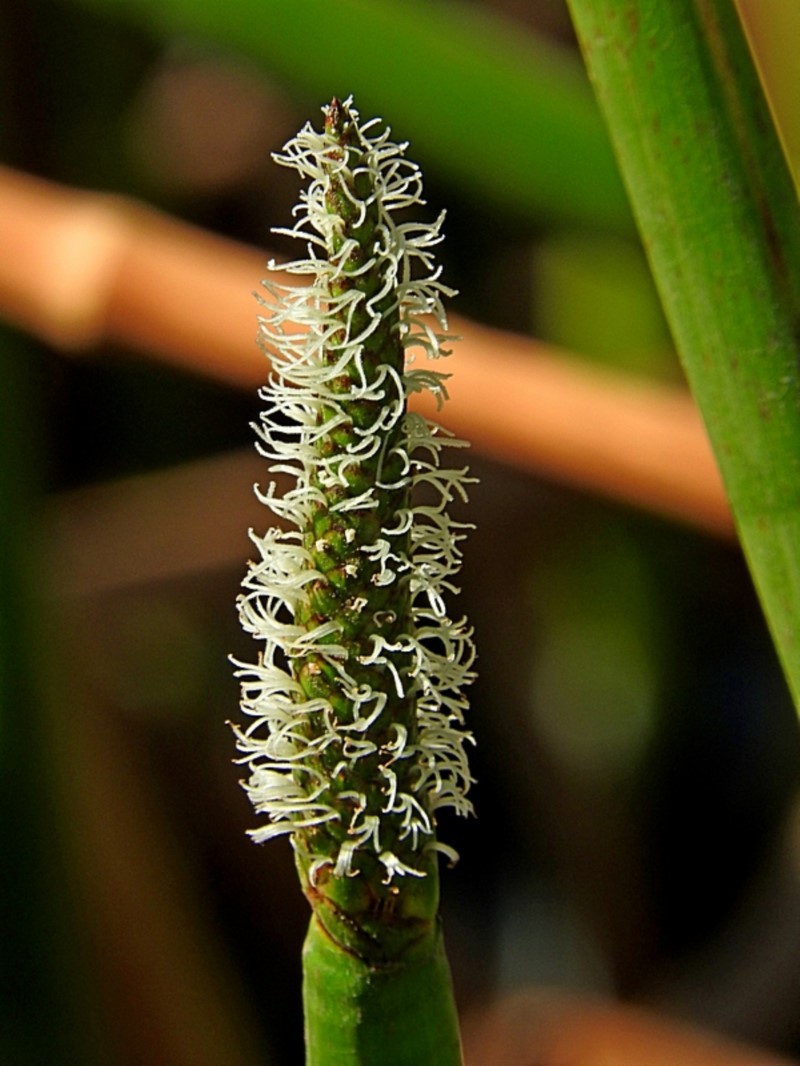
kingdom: Plantae
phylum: Tracheophyta
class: Liliopsida
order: Poales
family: Cyperaceae
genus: Eleocharis
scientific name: Eleocharis sphacelata
